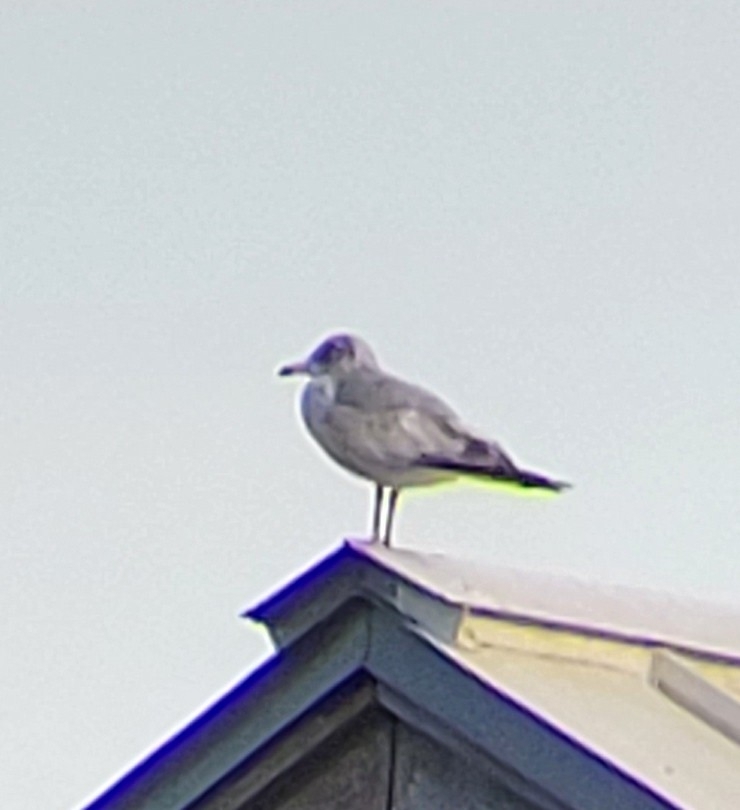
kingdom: Animalia
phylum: Chordata
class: Aves
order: Charadriiformes
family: Laridae
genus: Larus
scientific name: Larus delawarensis
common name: Ring-billed gull
